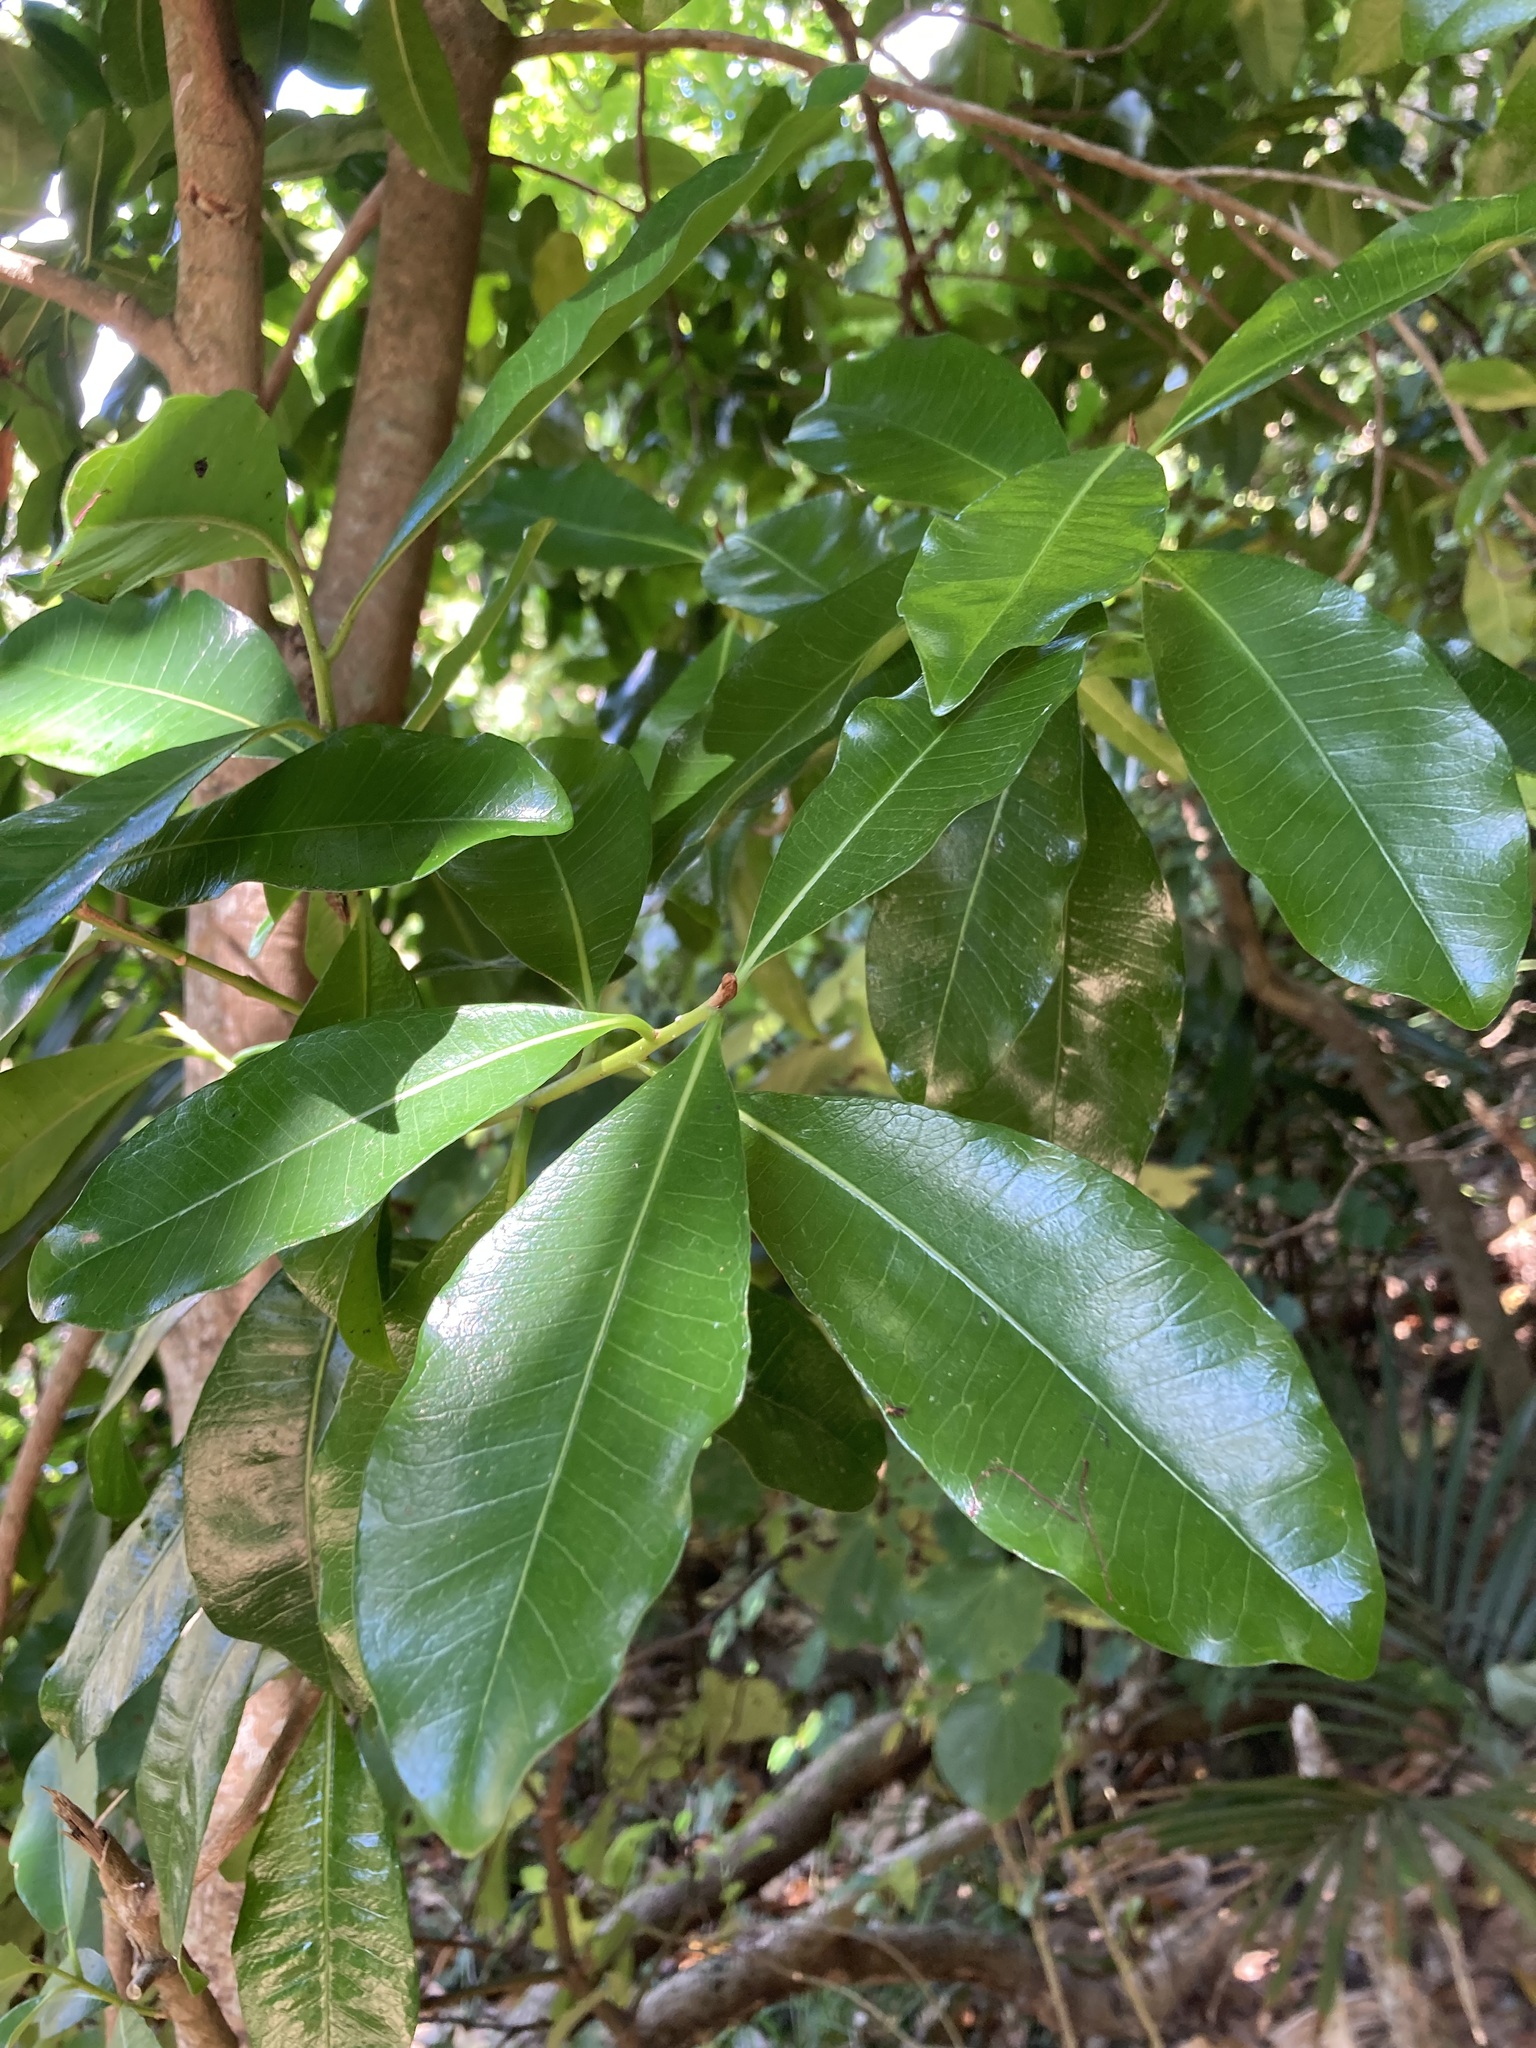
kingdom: Plantae
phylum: Tracheophyta
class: Magnoliopsida
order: Ericales
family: Sapotaceae
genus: Planchonella
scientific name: Planchonella costata
